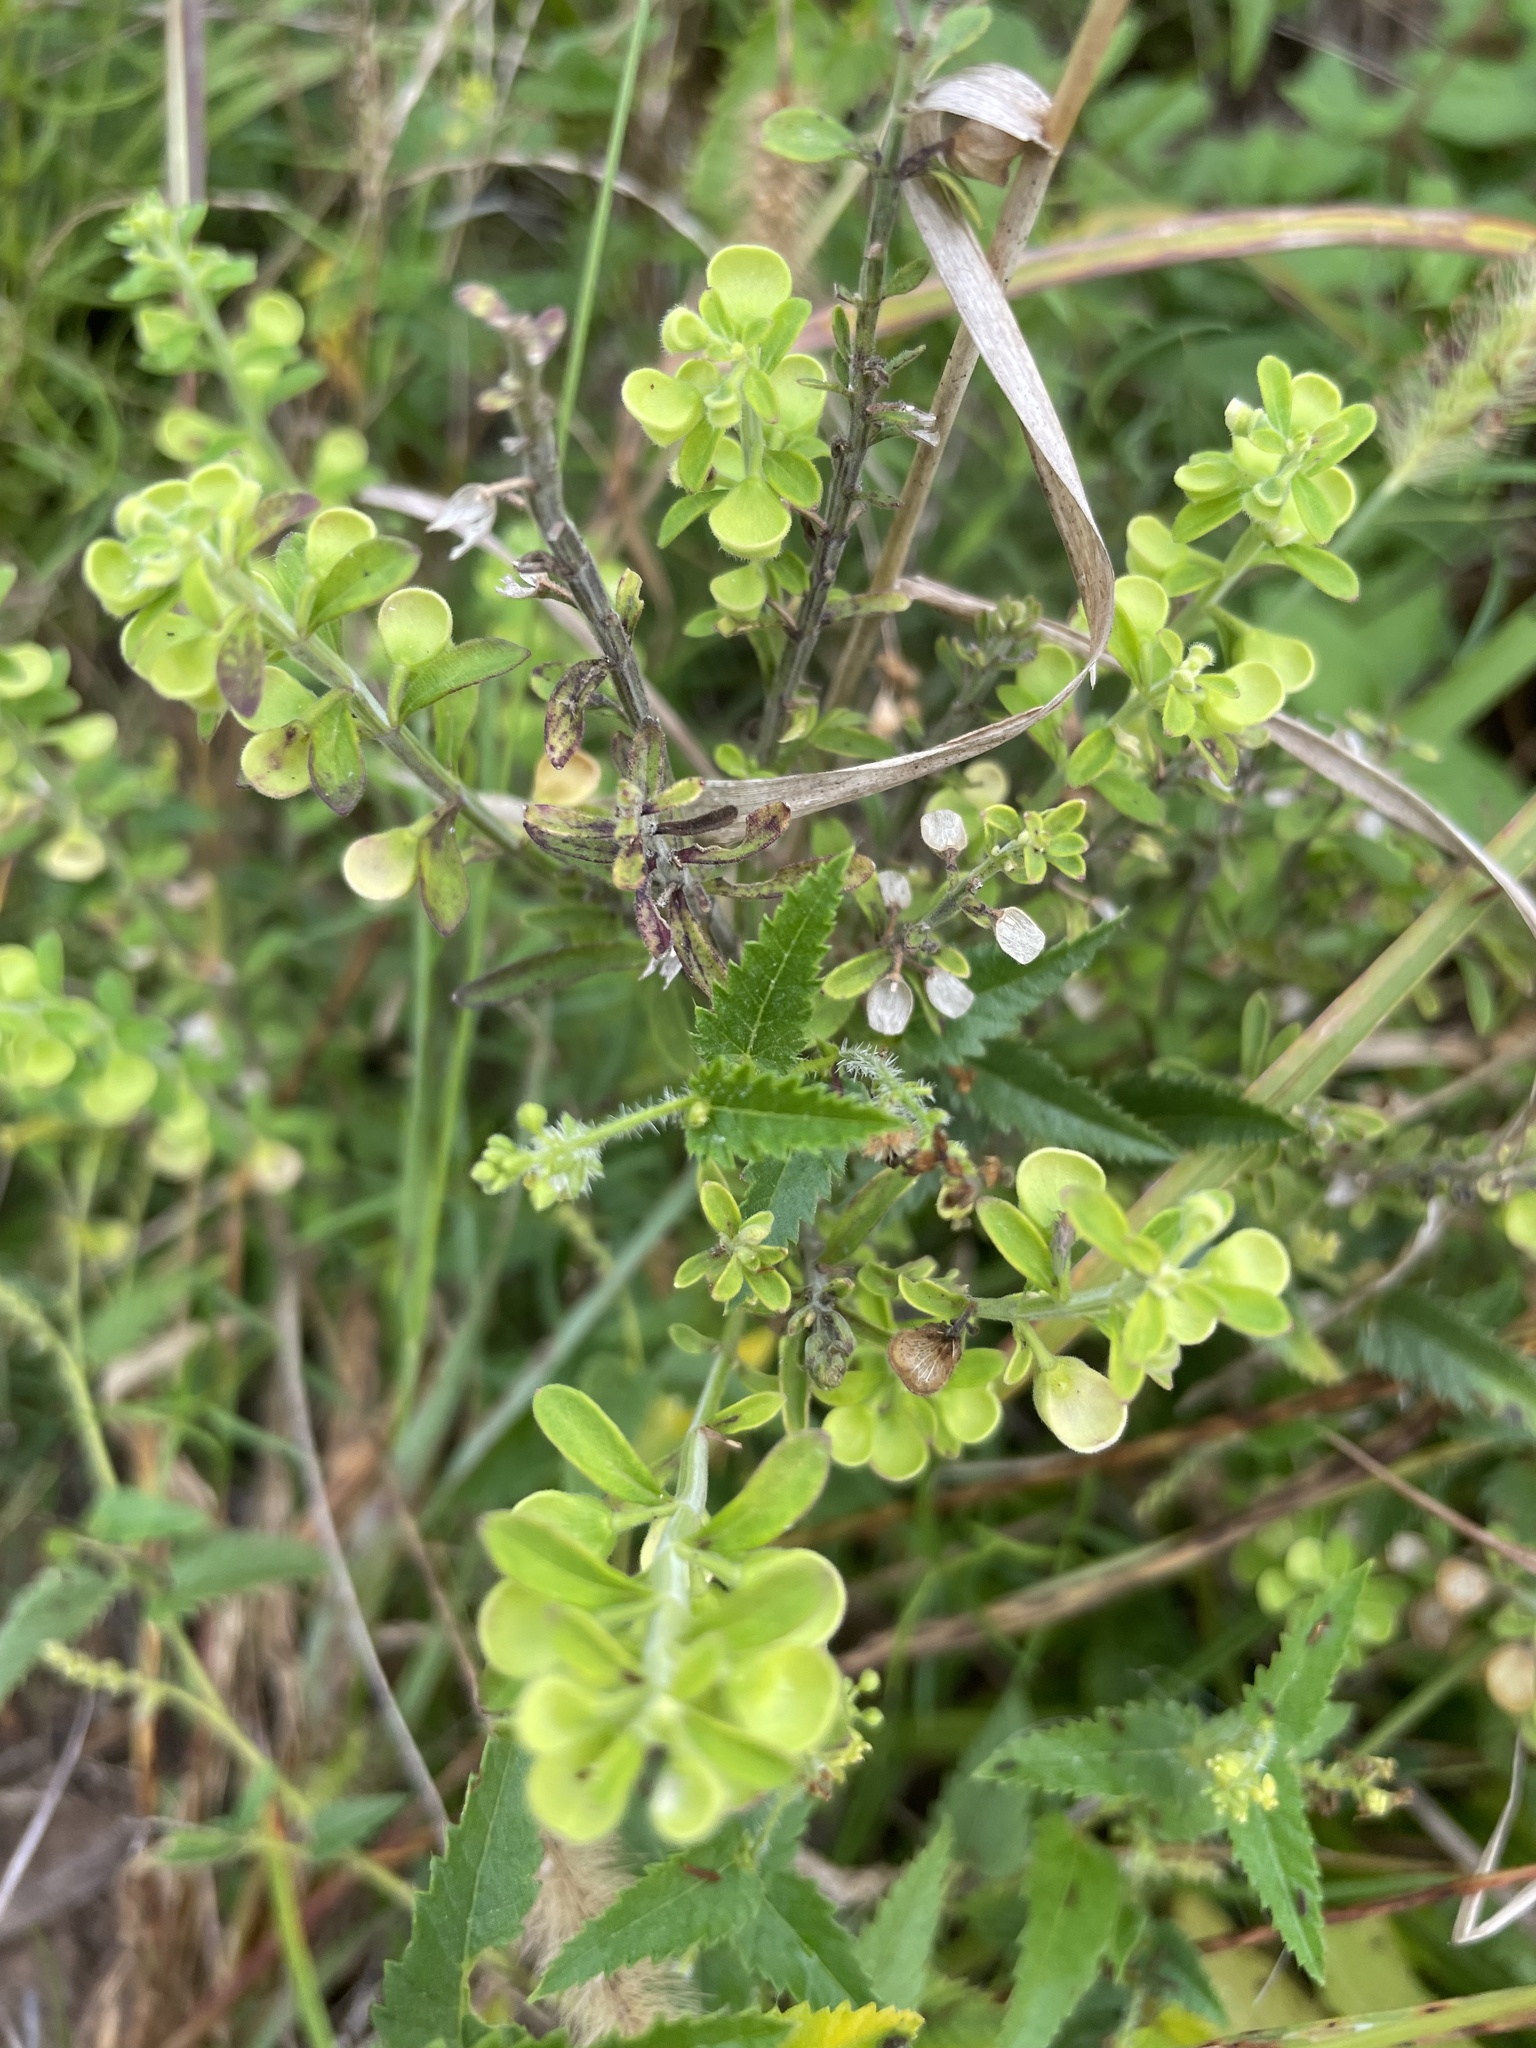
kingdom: Plantae
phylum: Tracheophyta
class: Magnoliopsida
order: Lamiales
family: Lamiaceae
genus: Scutellaria
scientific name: Scutellaria integrifolia
